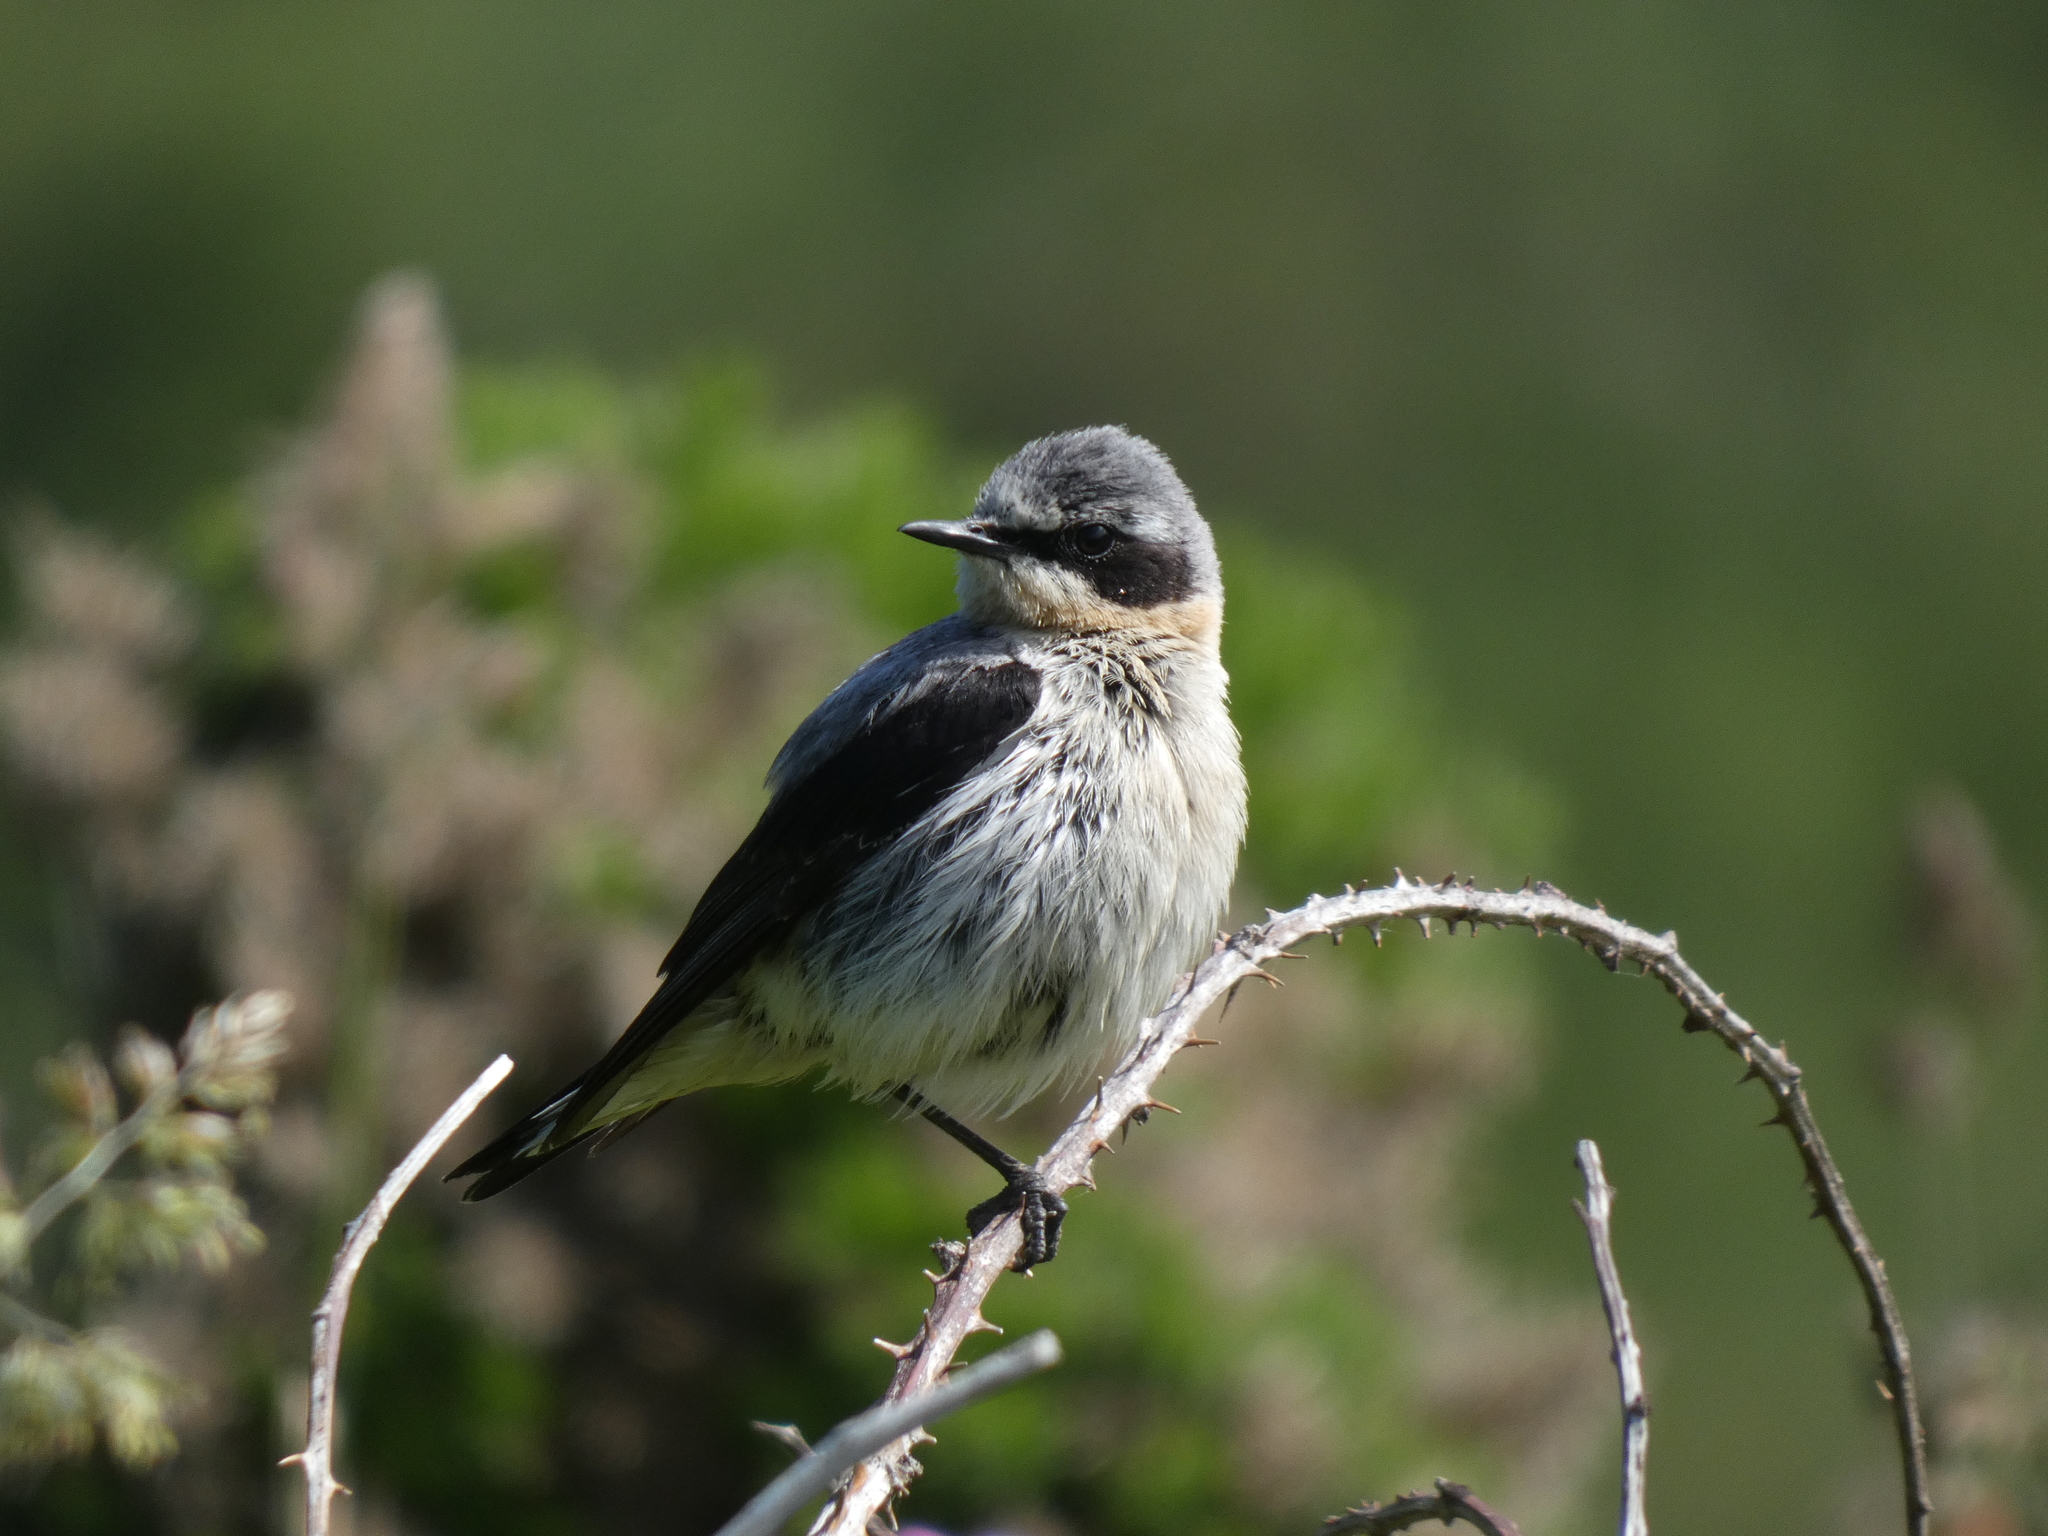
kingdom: Animalia
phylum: Chordata
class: Aves
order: Passeriformes
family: Muscicapidae
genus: Oenanthe
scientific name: Oenanthe oenanthe
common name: Northern wheatear
